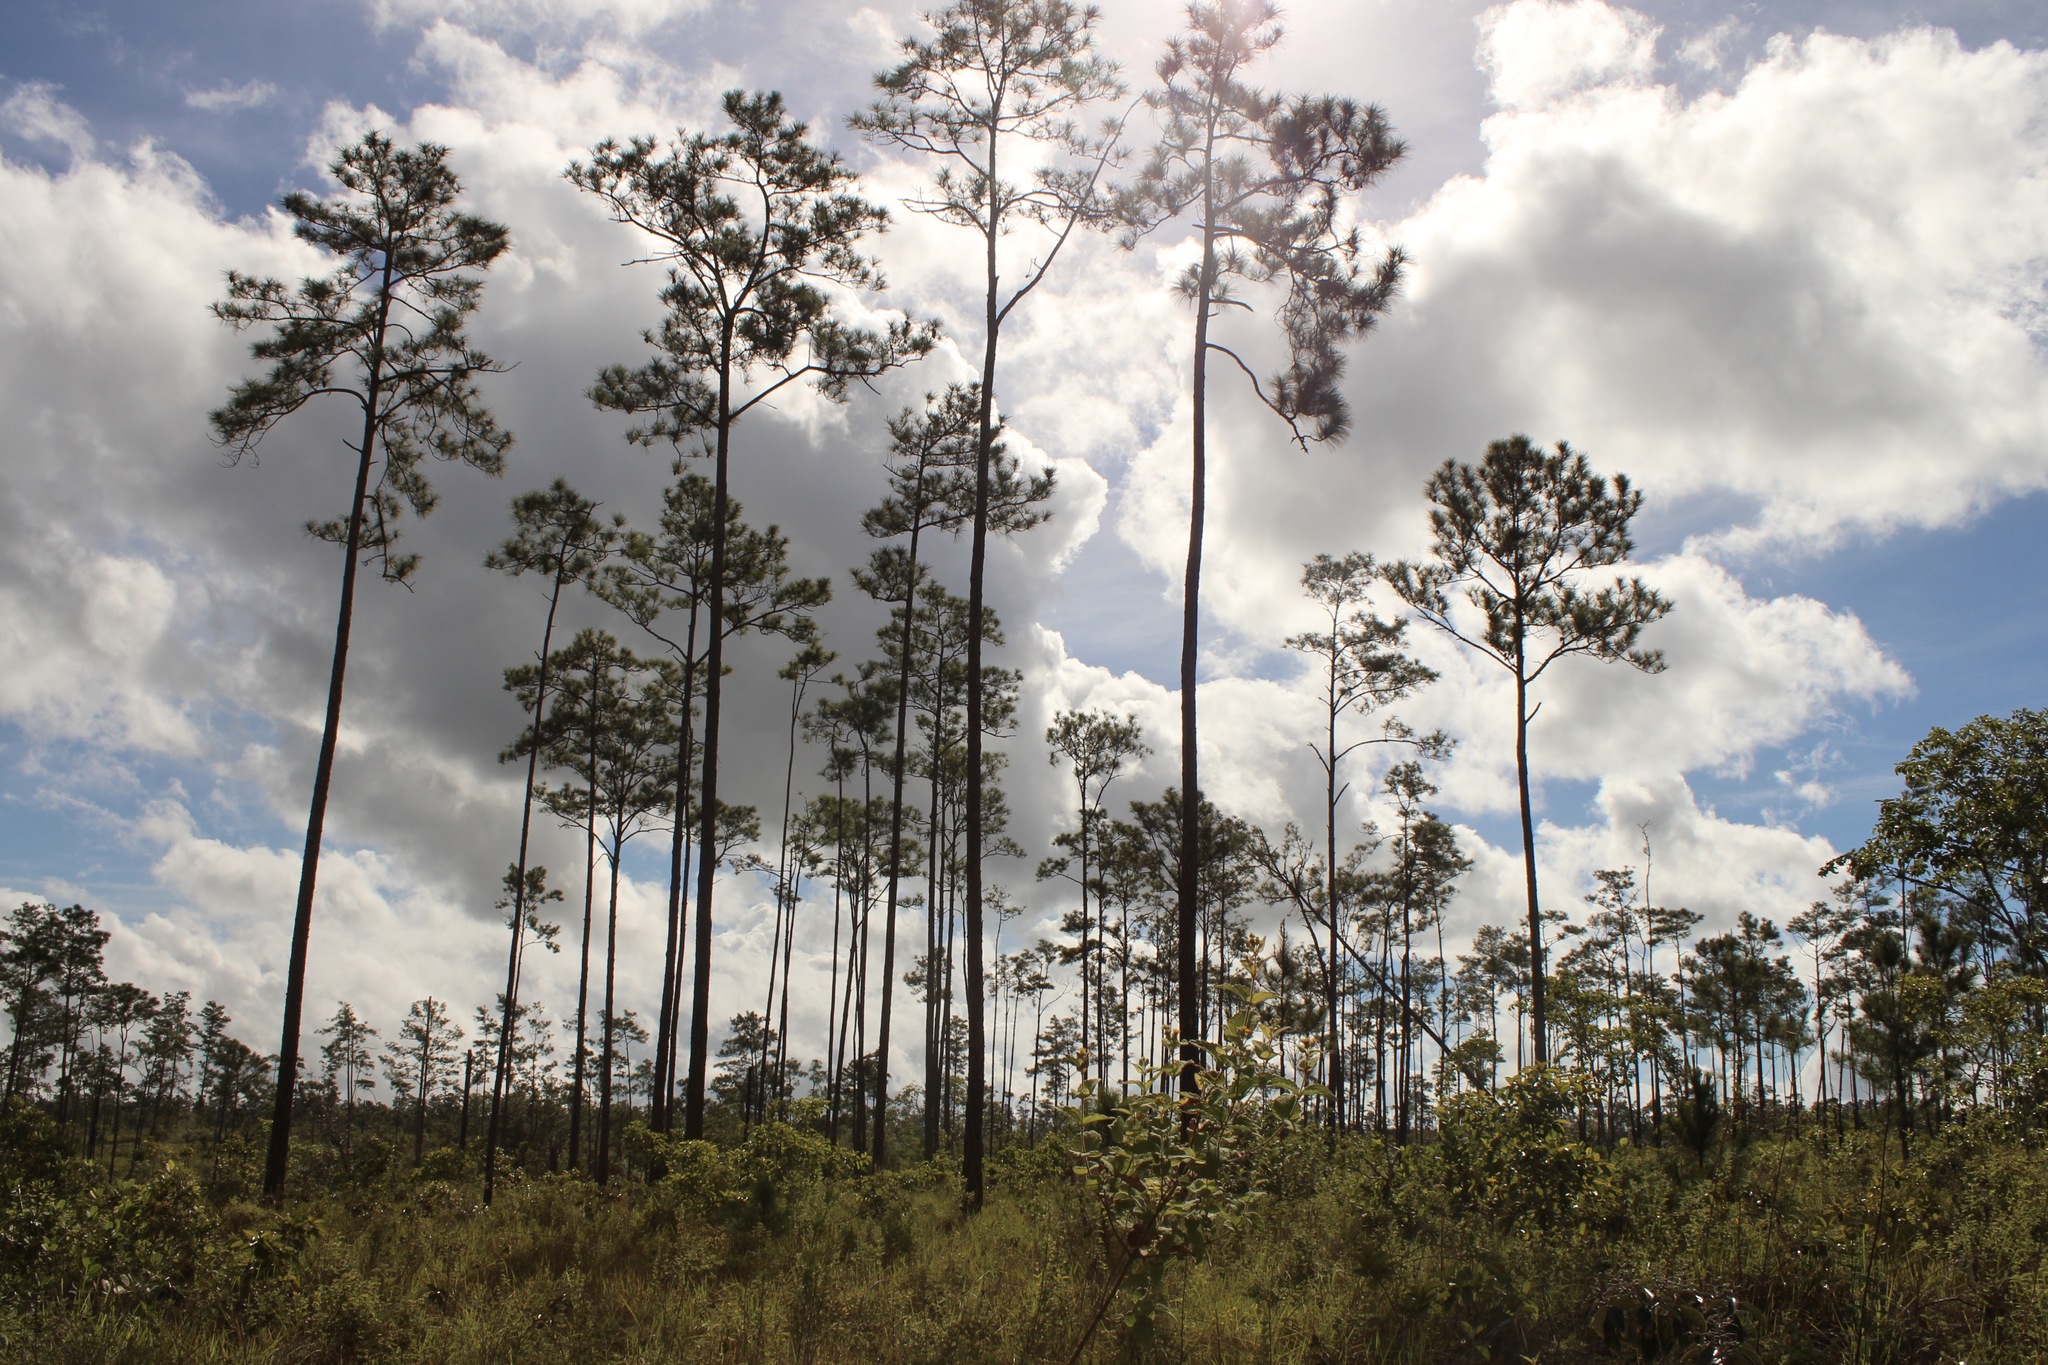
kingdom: Plantae
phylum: Tracheophyta
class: Pinopsida
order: Pinales
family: Pinaceae
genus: Pinus
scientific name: Pinus caribaea
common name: Caribbean pine
